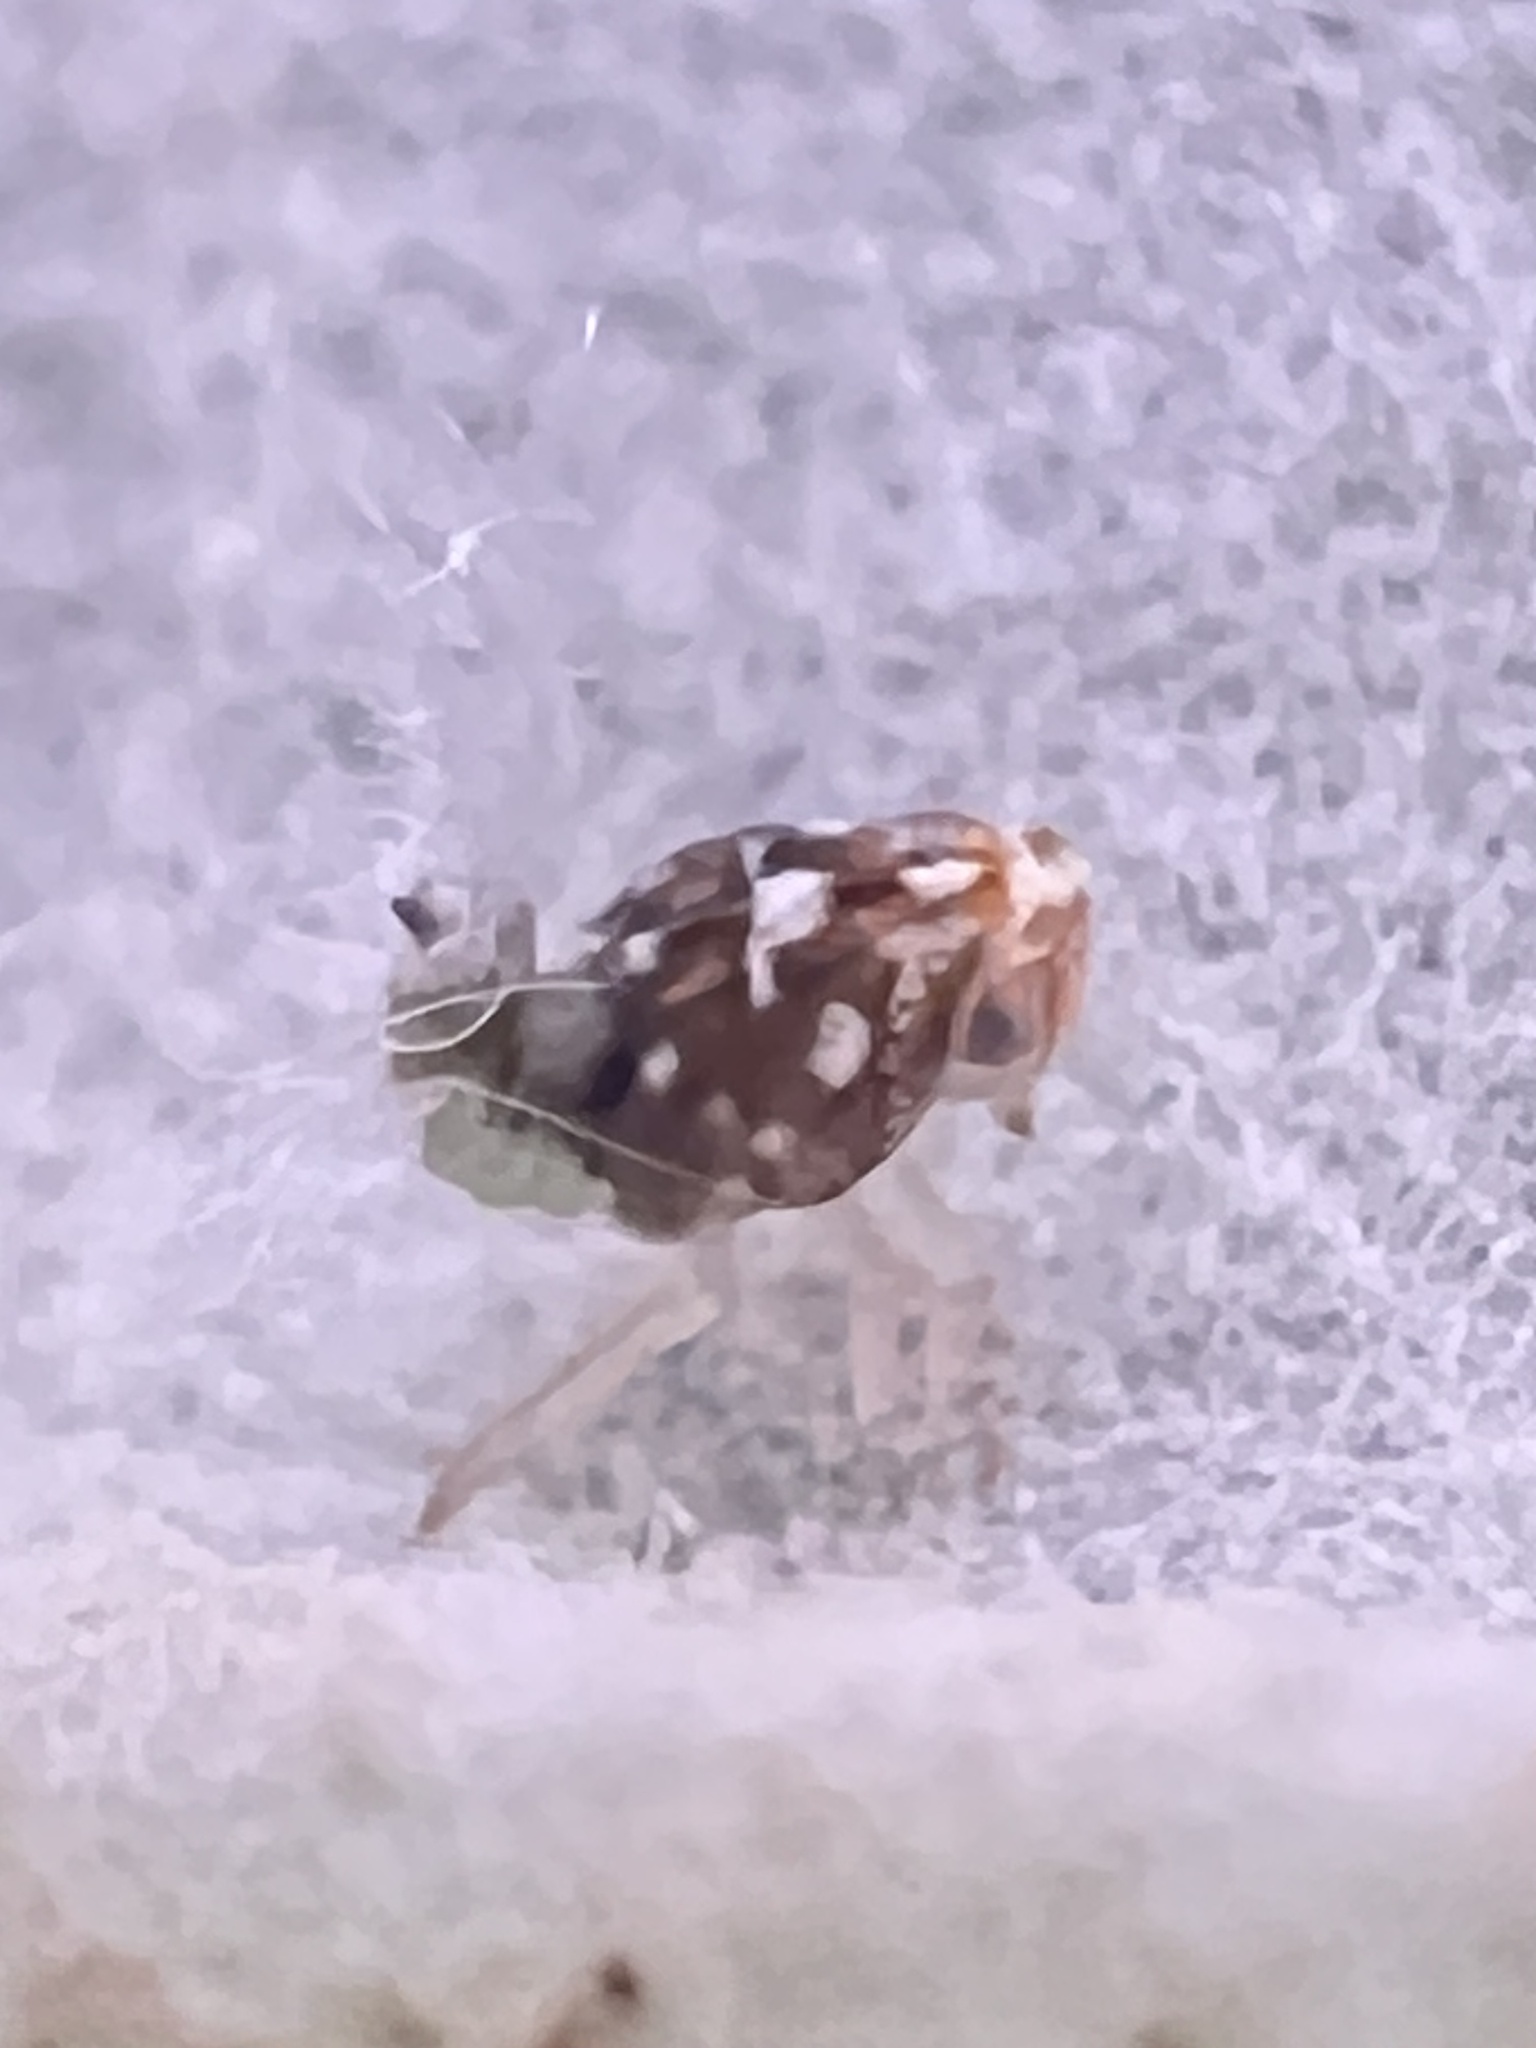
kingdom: Animalia
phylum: Arthropoda
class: Insecta
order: Hemiptera
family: Ricaniidae
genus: Scolypopa
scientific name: Scolypopa australis
